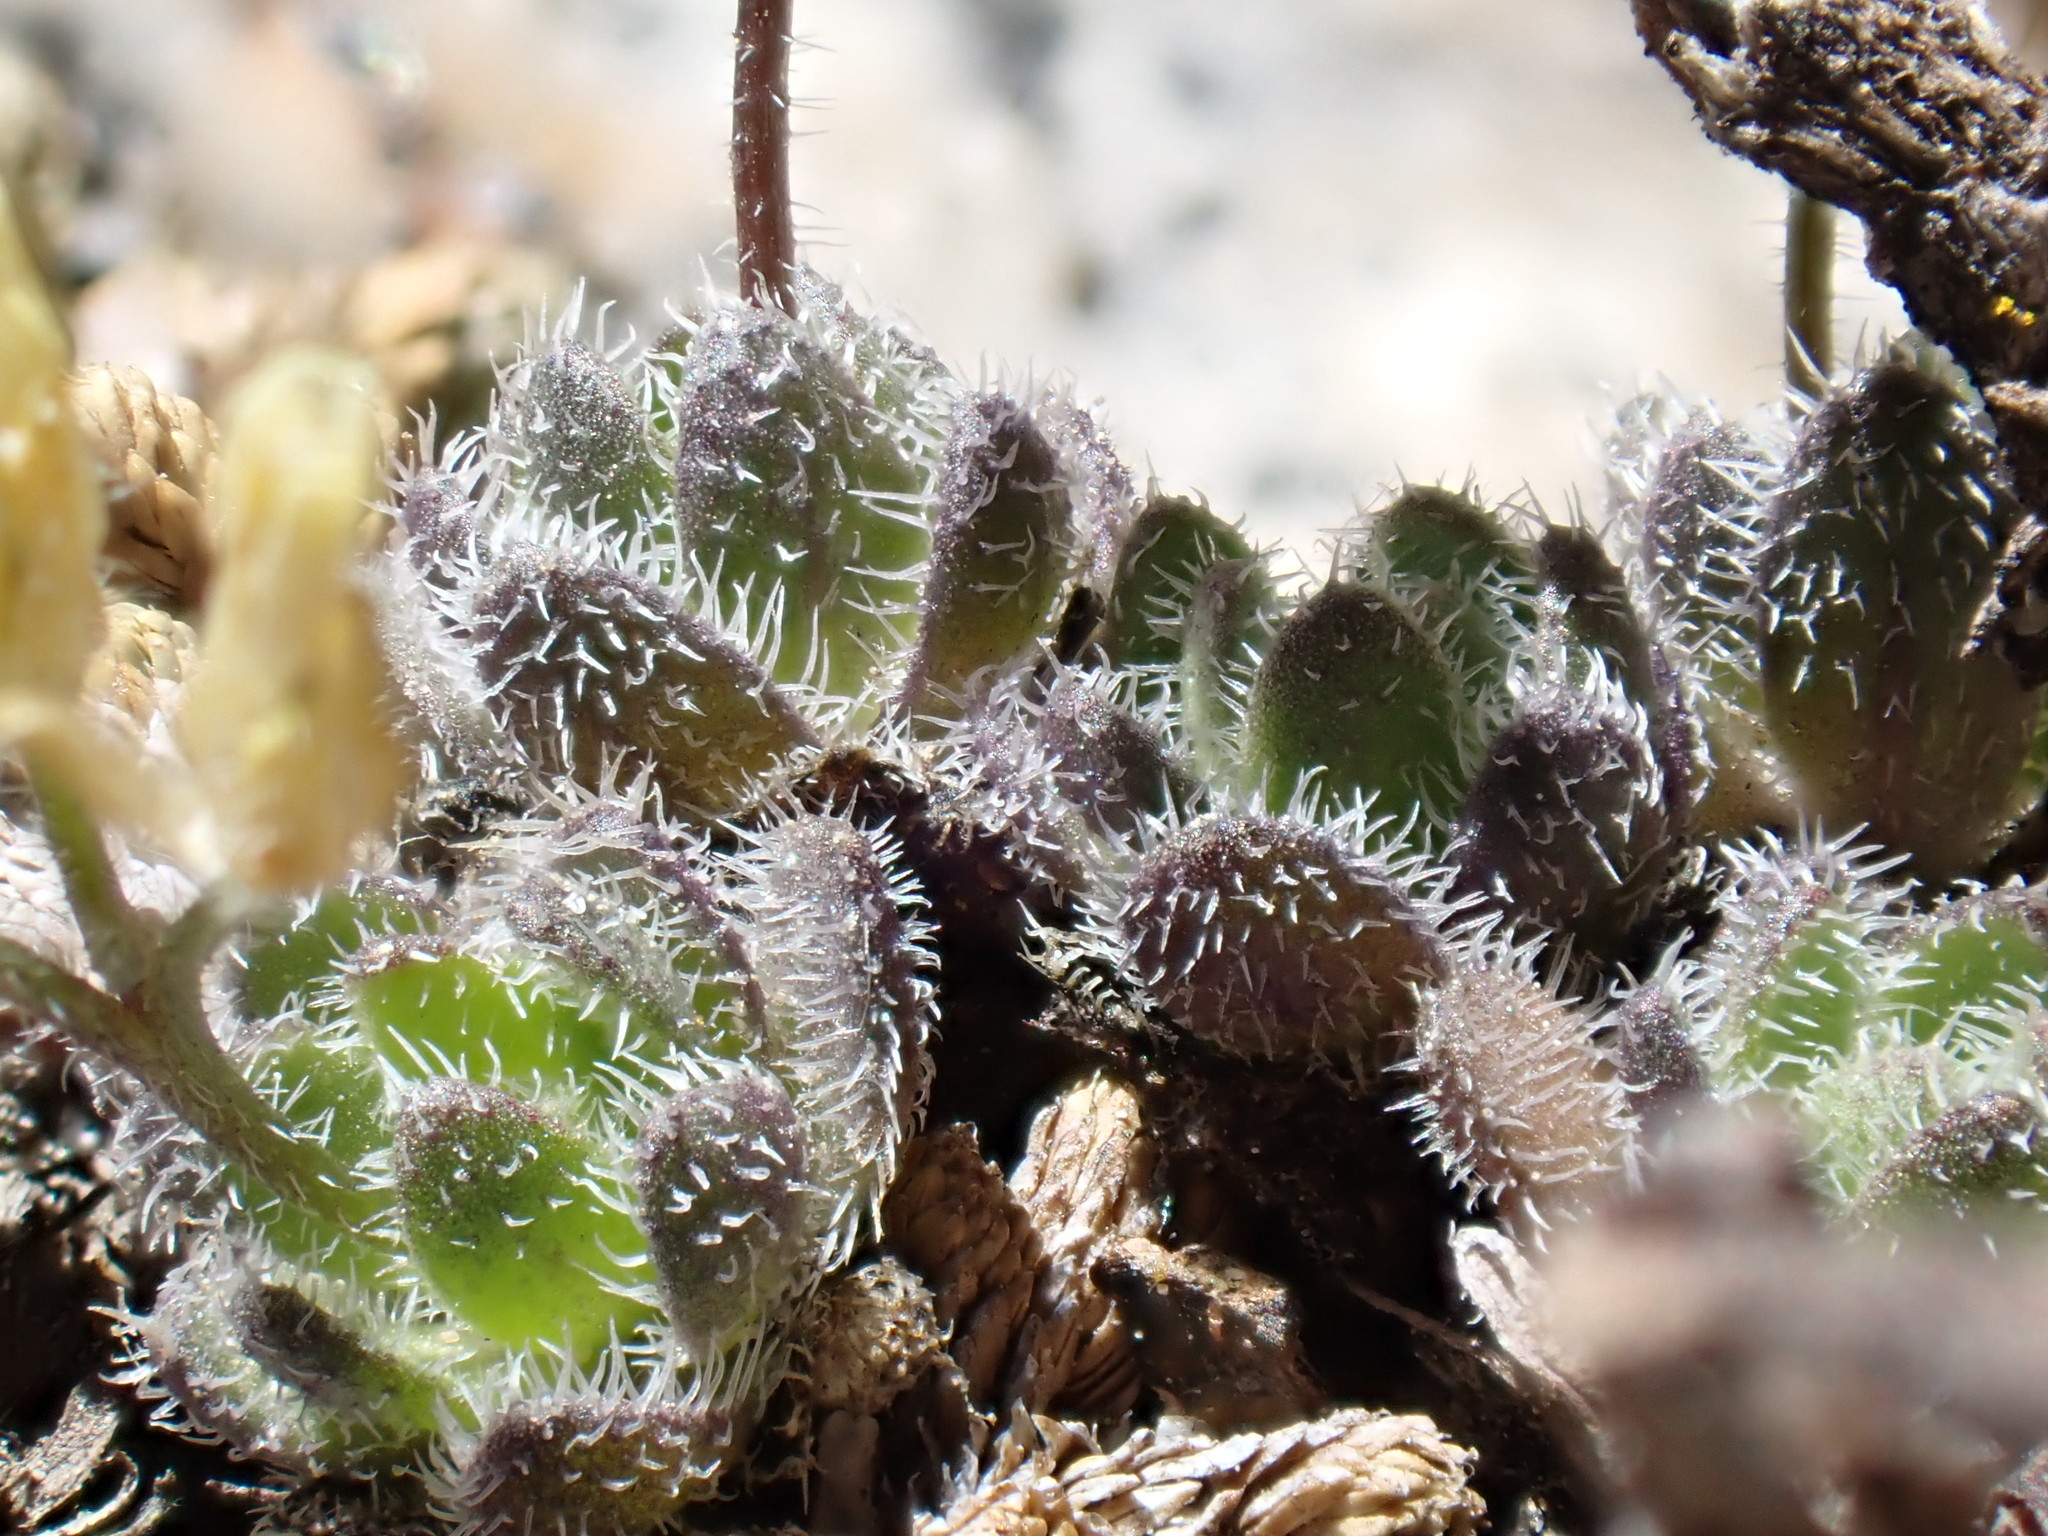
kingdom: Plantae
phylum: Tracheophyta
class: Magnoliopsida
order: Brassicales
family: Brassicaceae
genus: Draba
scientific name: Draba lemmonii
